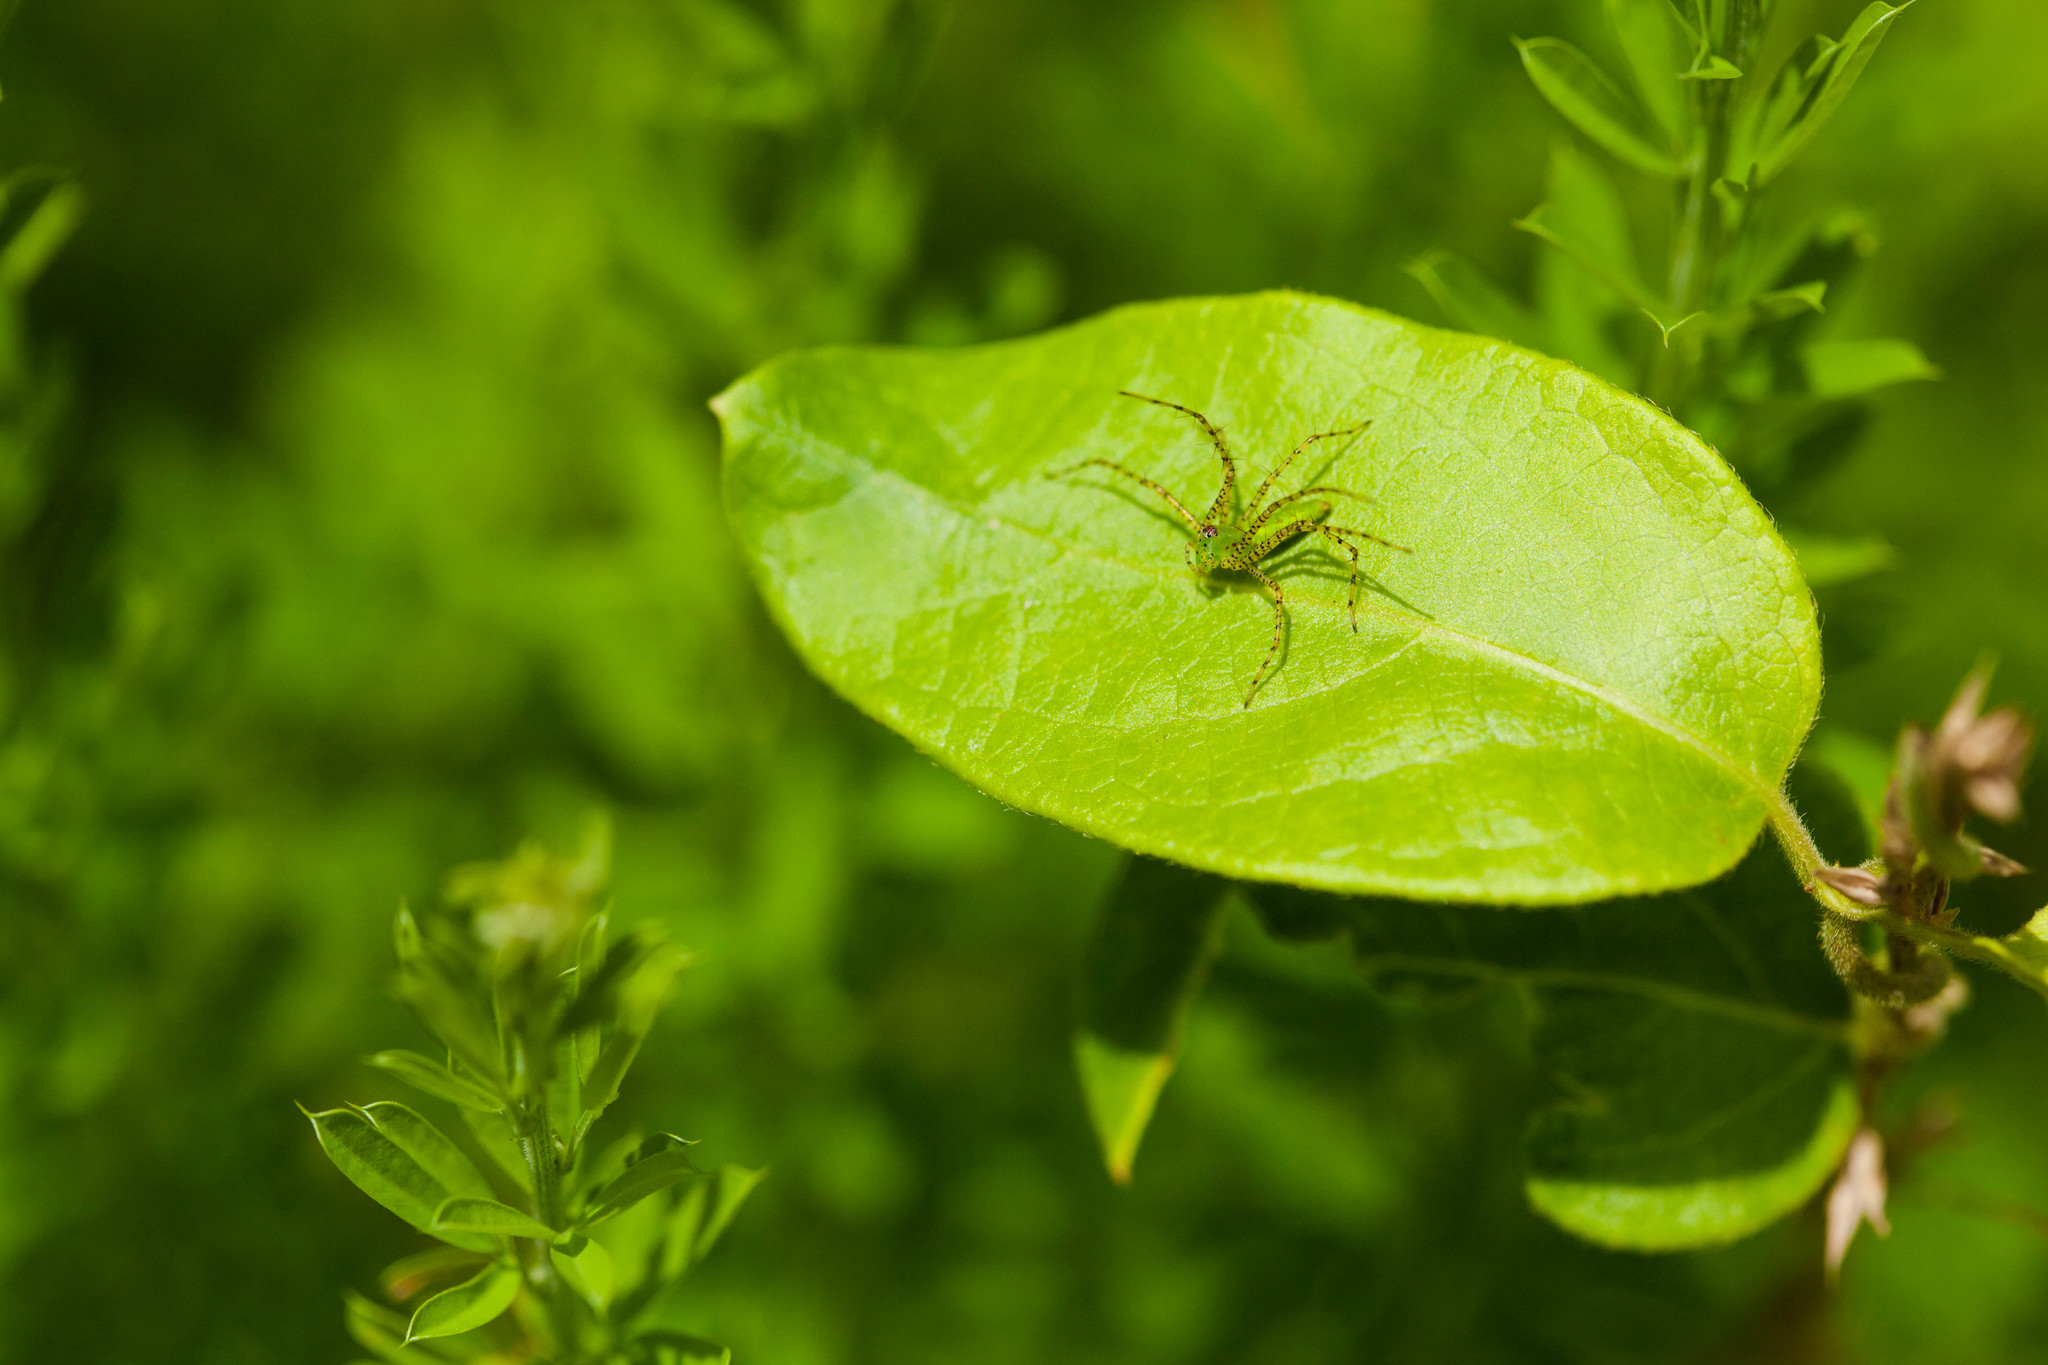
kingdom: Animalia
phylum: Arthropoda
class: Arachnida
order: Araneae
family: Oxyopidae
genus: Peucetia
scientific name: Peucetia viridans
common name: Lynx spiders
